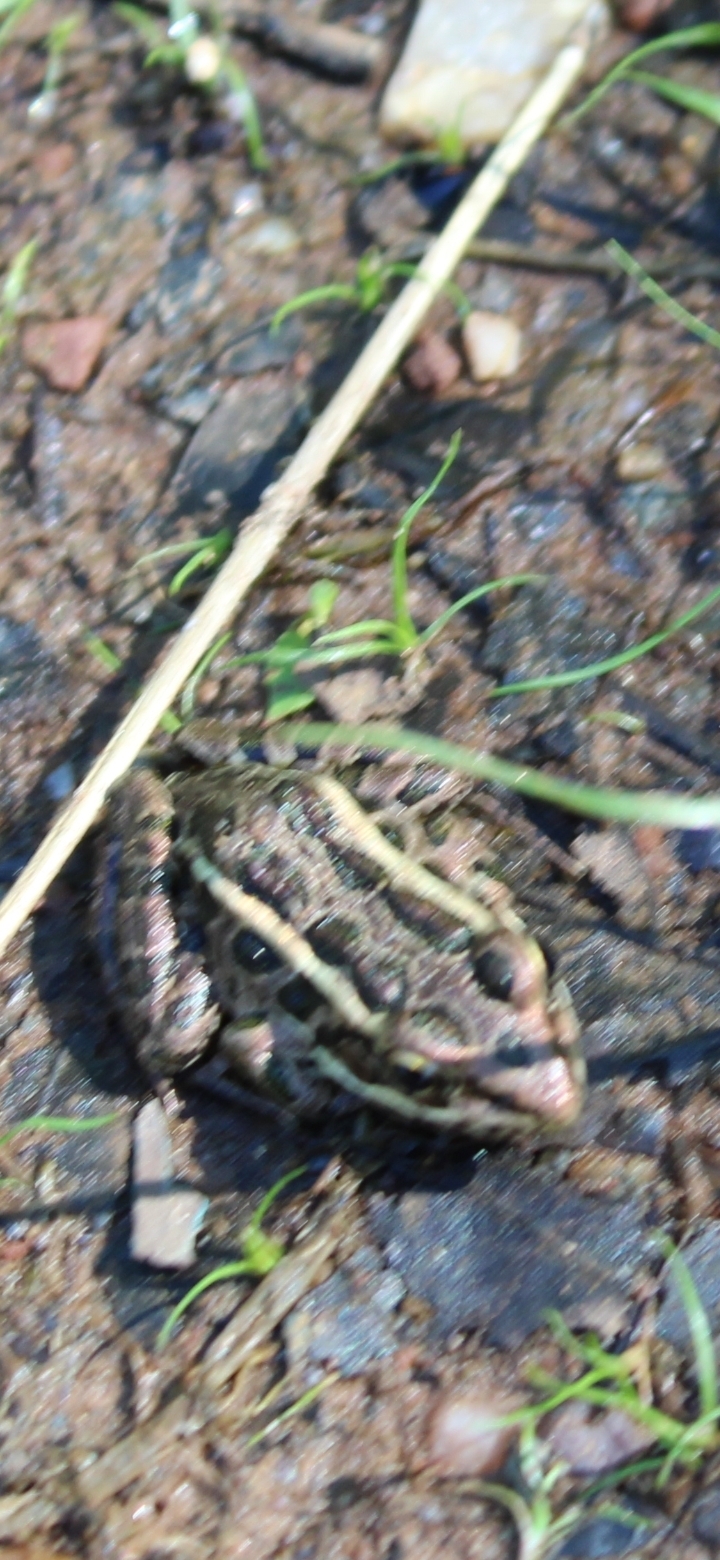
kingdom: Animalia
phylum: Chordata
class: Amphibia
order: Anura
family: Ranidae
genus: Lithobates
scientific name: Lithobates palustris
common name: Pickerel frog
